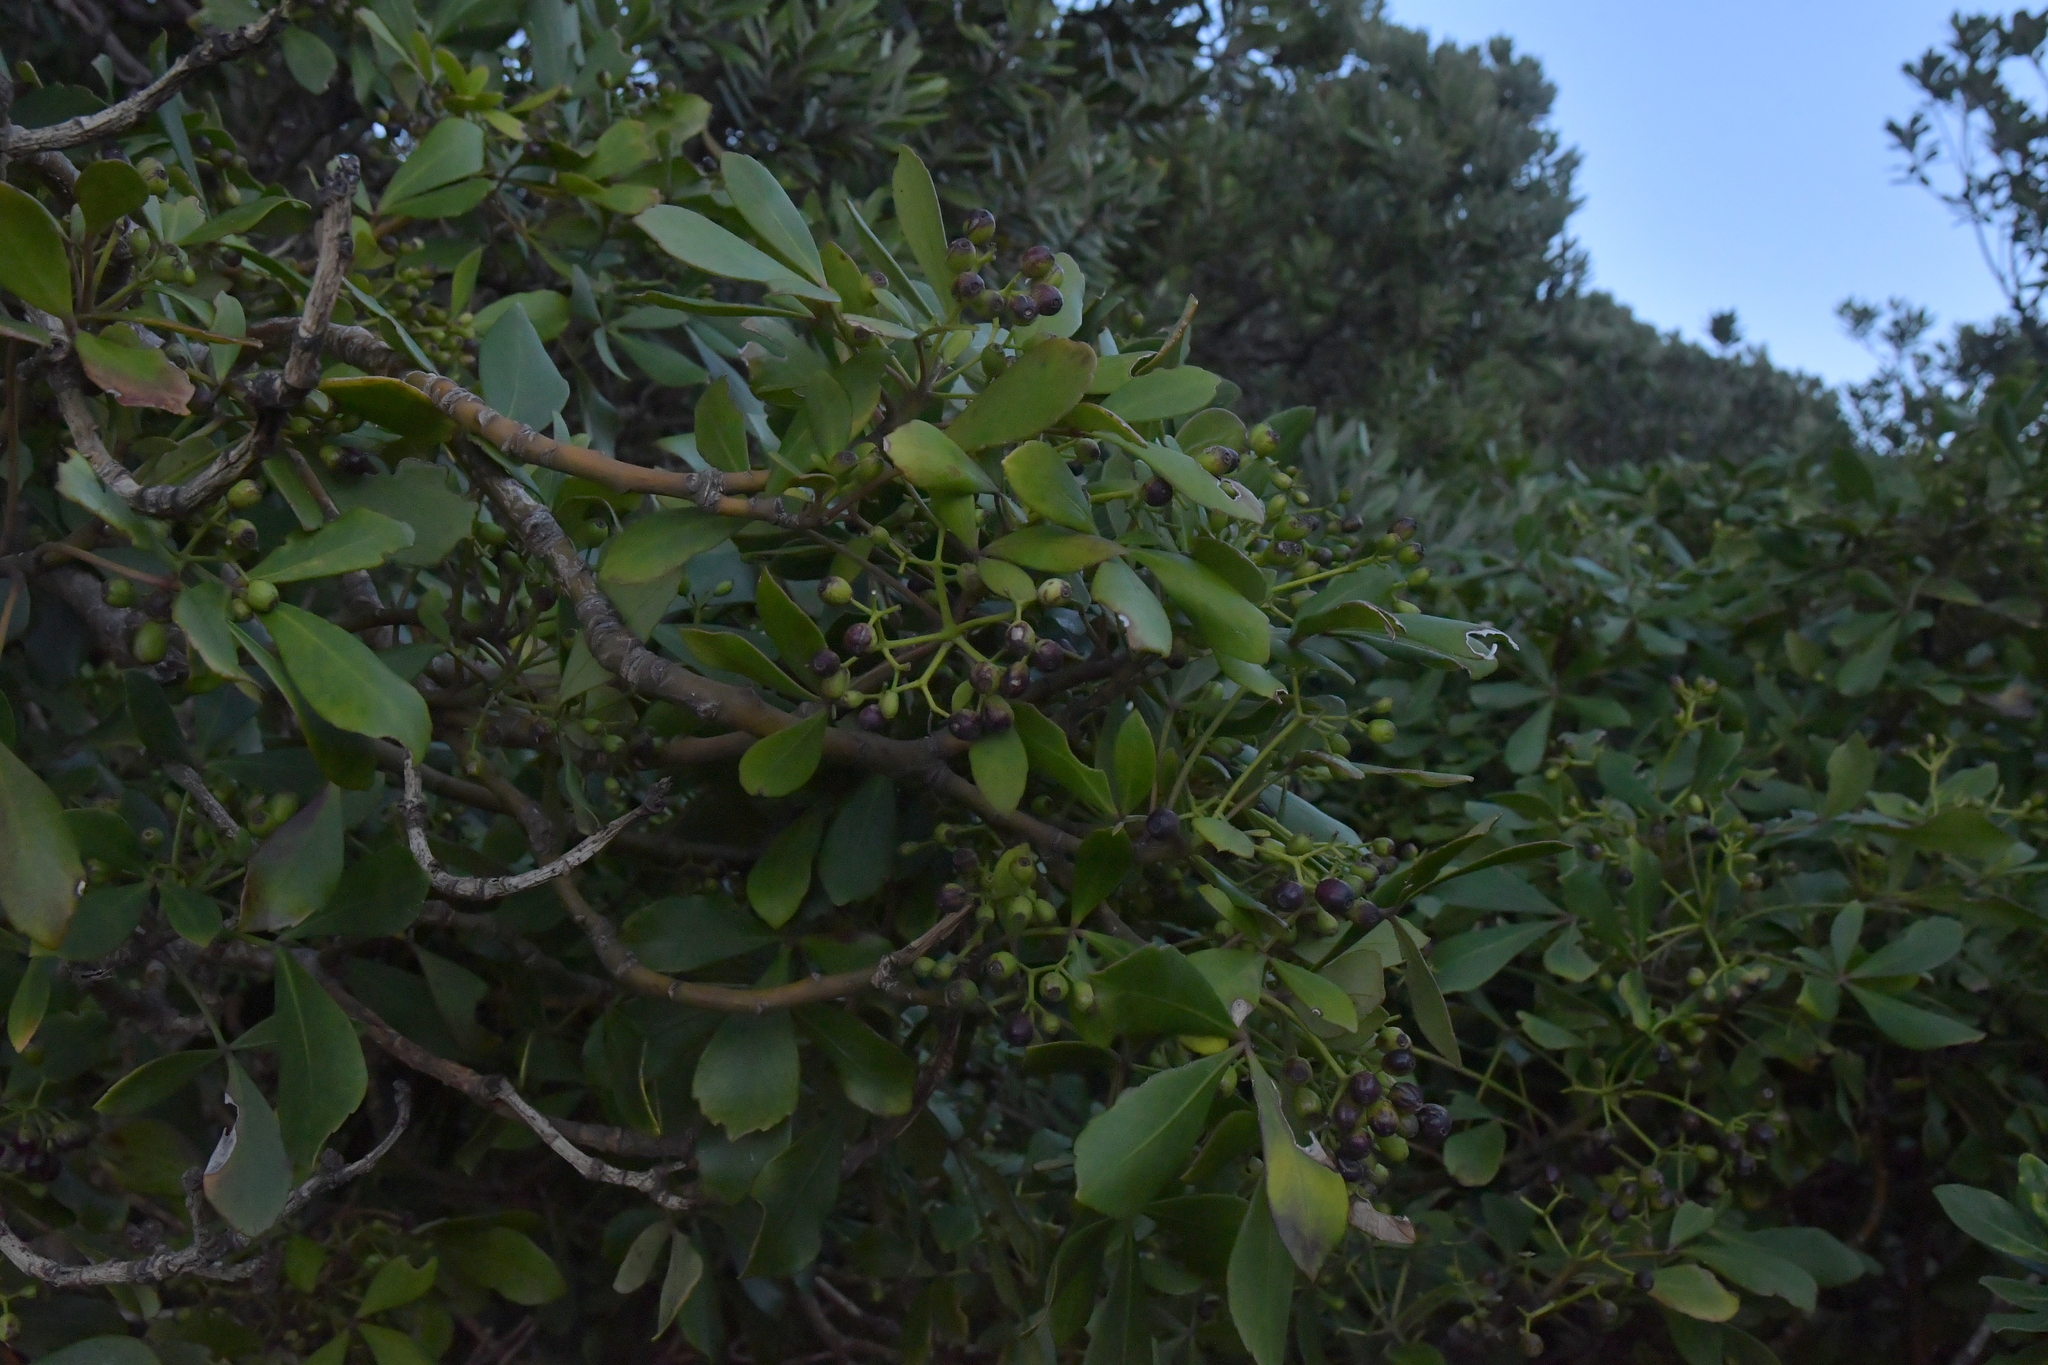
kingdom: Plantae
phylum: Tracheophyta
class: Magnoliopsida
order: Apiales
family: Araliaceae
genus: Pseudopanax
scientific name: Pseudopanax lessonii
